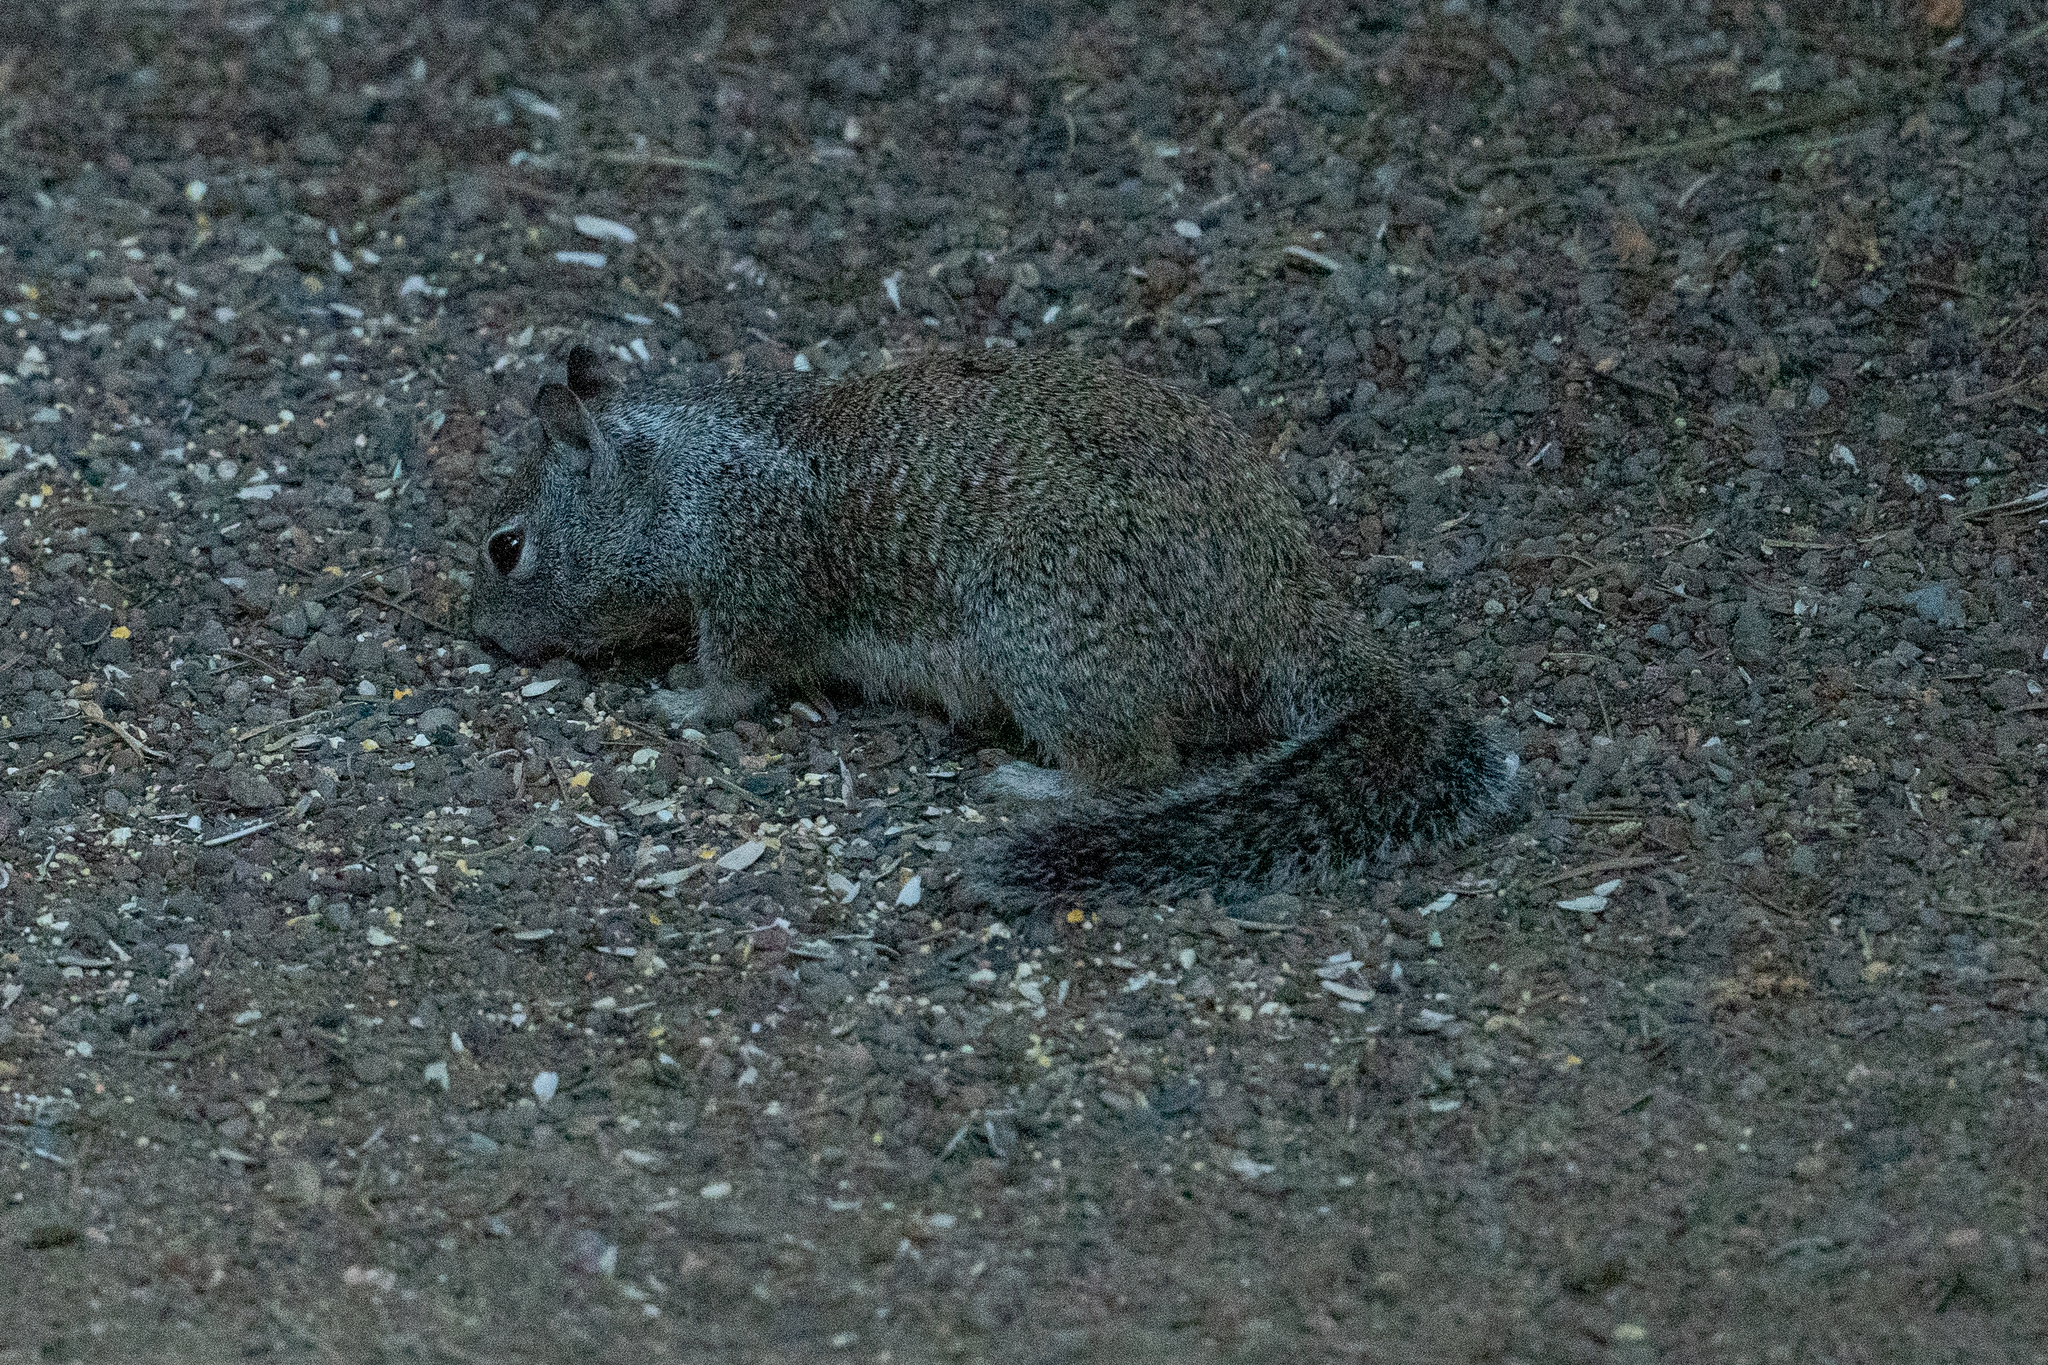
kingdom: Animalia
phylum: Chordata
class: Mammalia
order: Rodentia
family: Sciuridae
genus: Otospermophilus
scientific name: Otospermophilus beecheyi
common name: California ground squirrel
